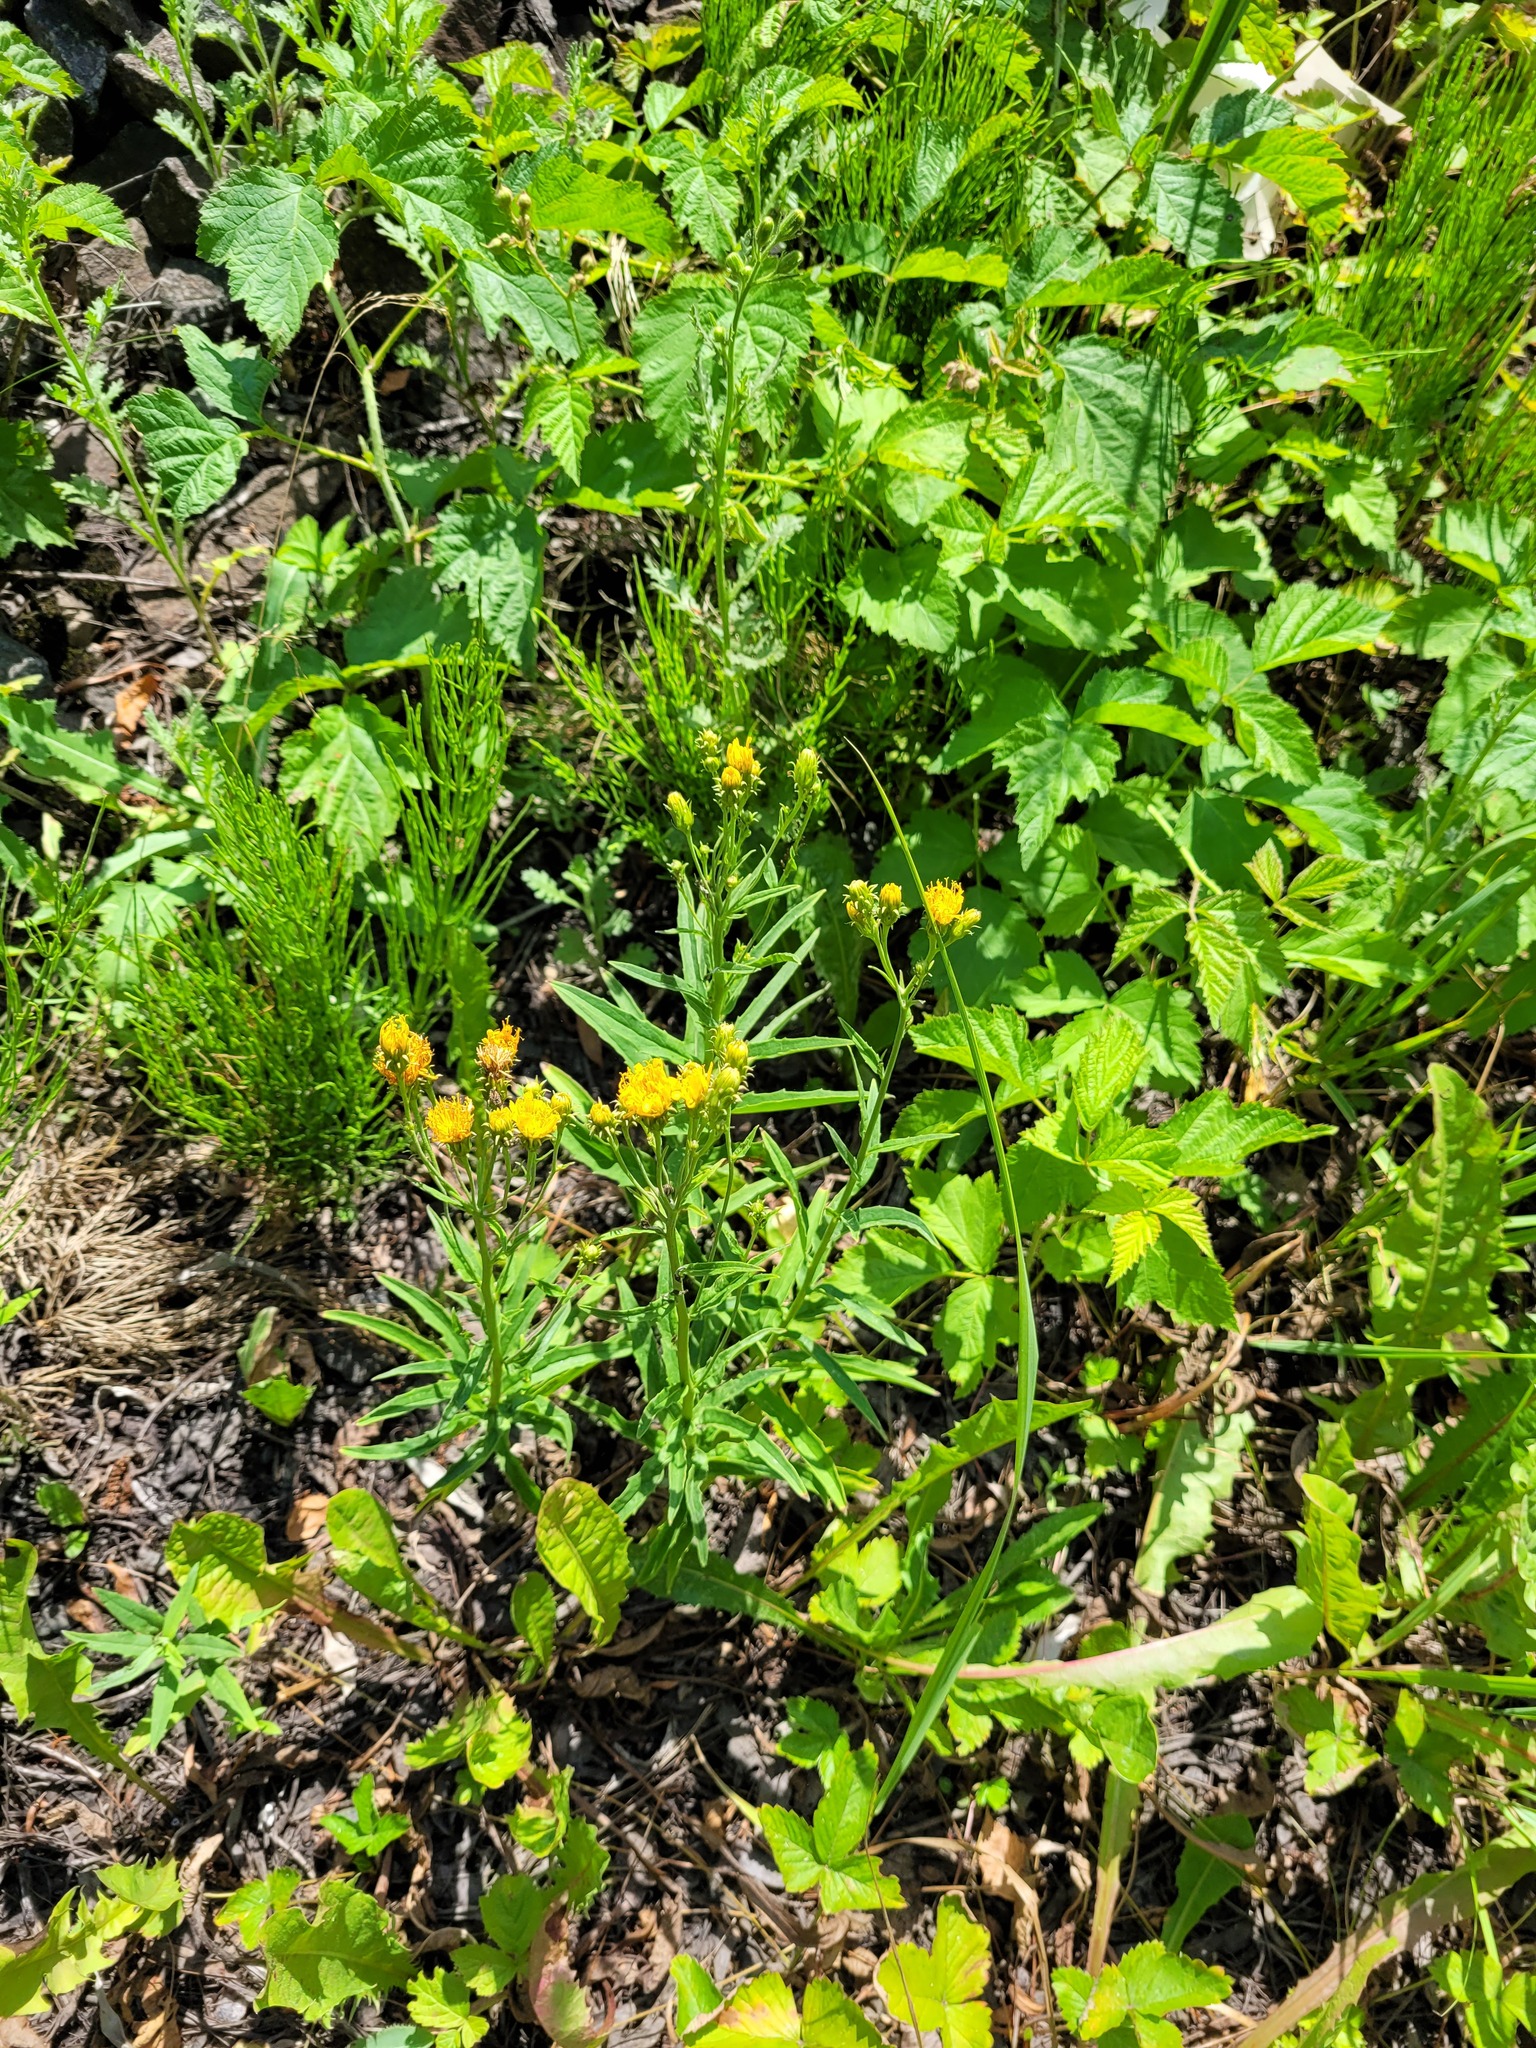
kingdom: Plantae
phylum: Tracheophyta
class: Magnoliopsida
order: Asterales
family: Asteraceae
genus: Hieracium
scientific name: Hieracium umbellatum
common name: Northern hawkweed
